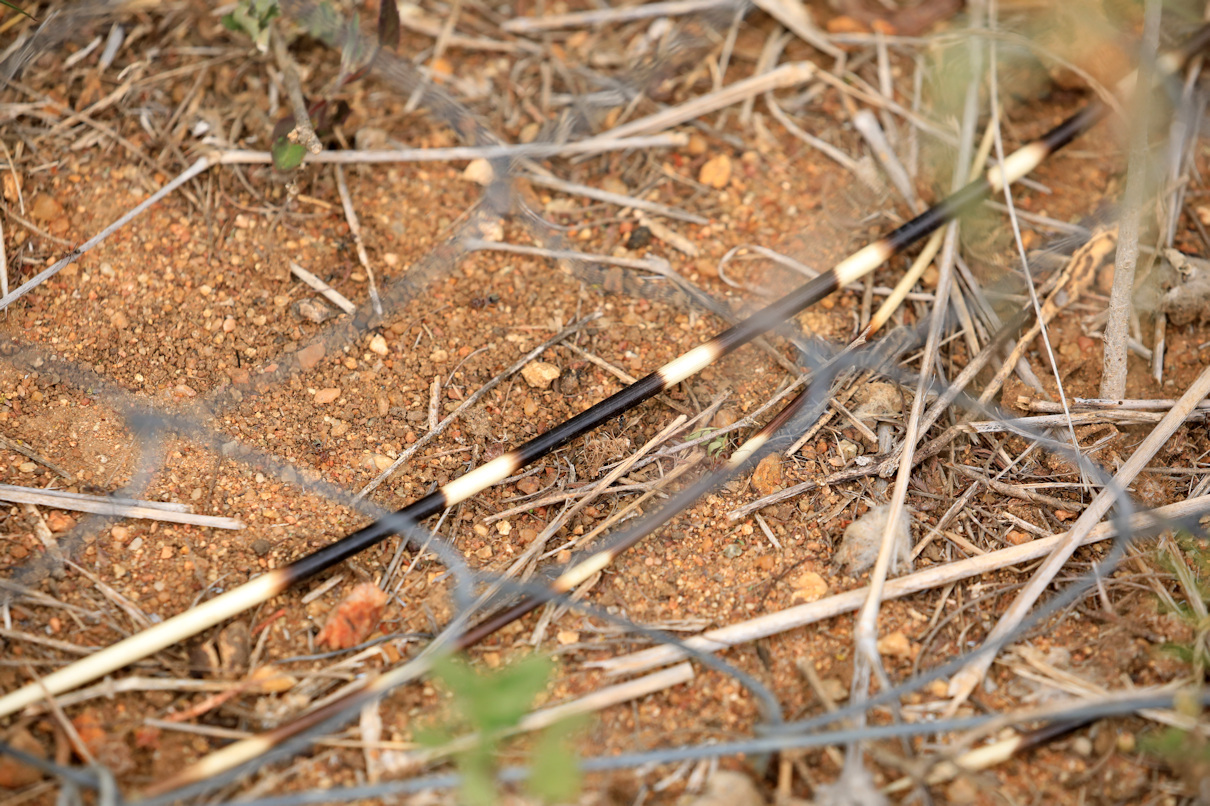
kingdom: Animalia
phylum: Chordata
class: Mammalia
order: Rodentia
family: Hystricidae
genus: Hystrix
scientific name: Hystrix africaeaustralis
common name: Cape porcupine
